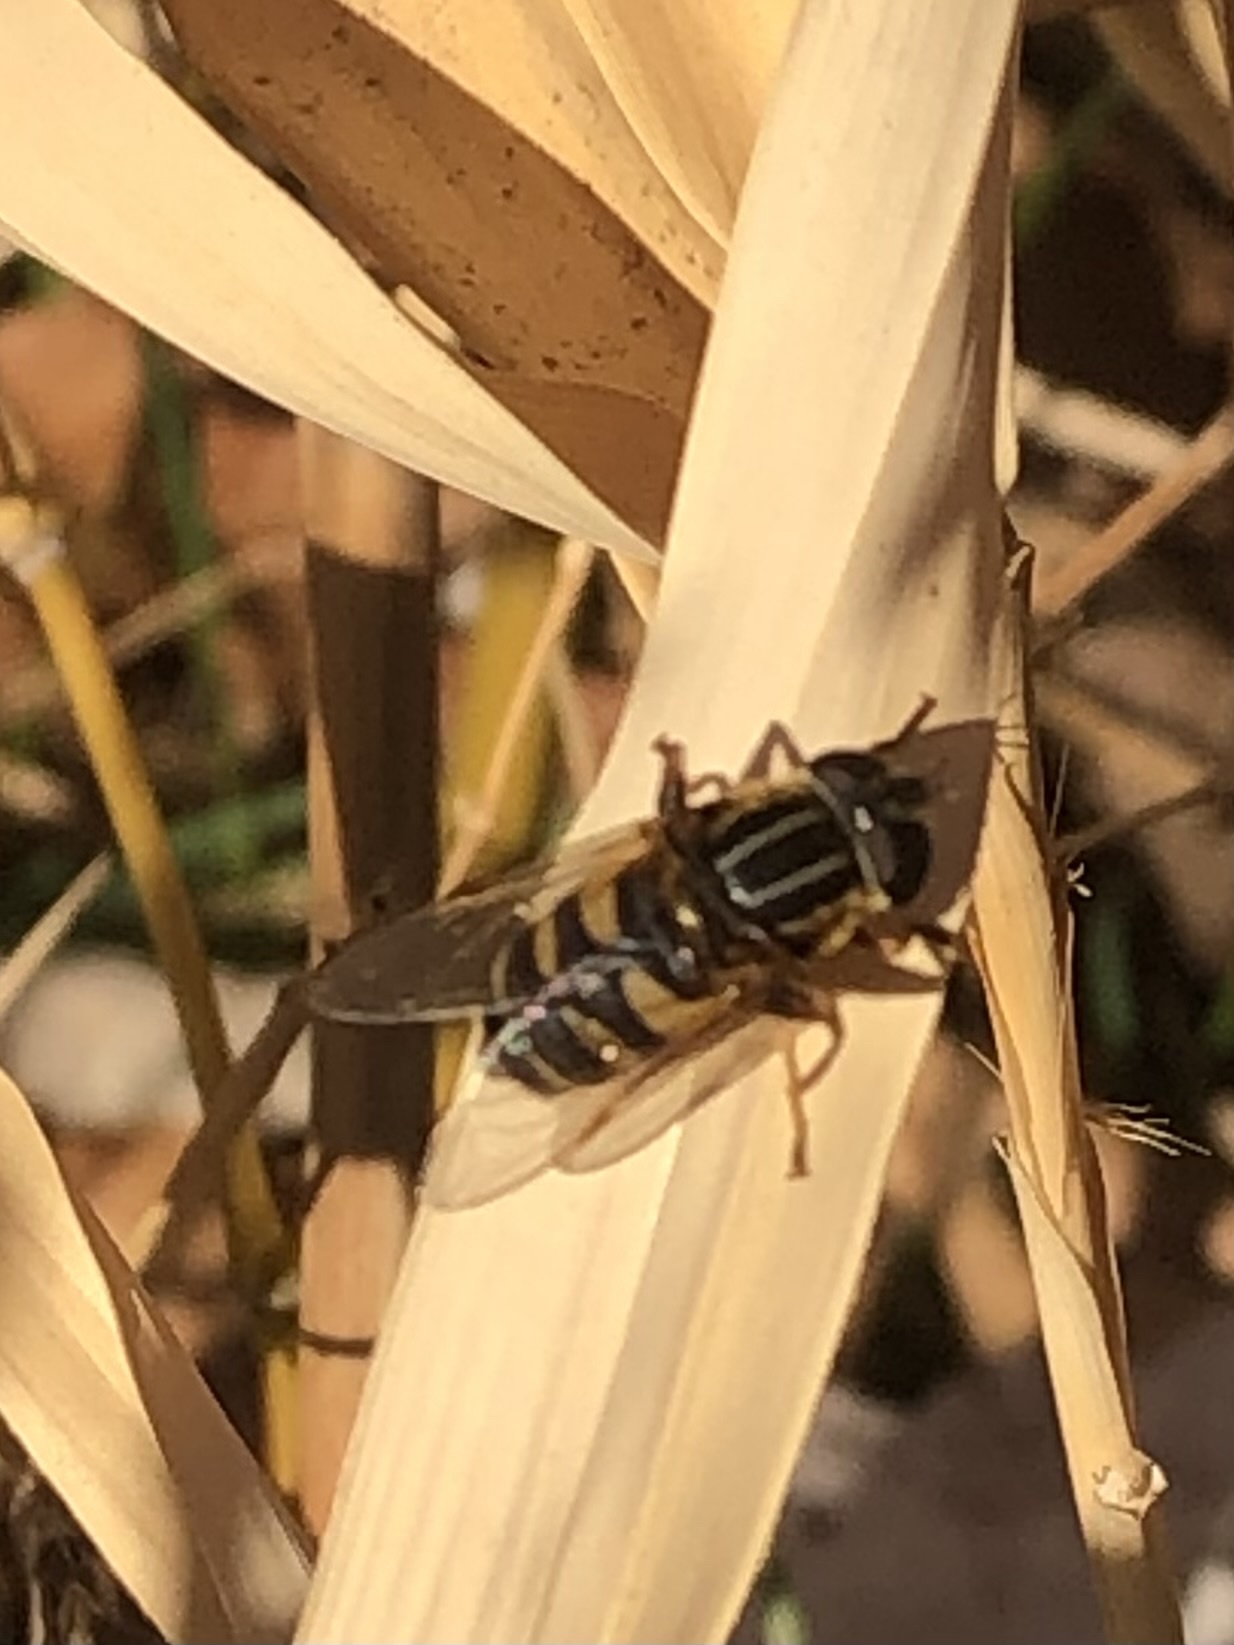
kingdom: Animalia
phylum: Arthropoda
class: Insecta
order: Diptera
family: Syrphidae
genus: Helophilus
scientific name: Helophilus fasciatus
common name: Narrow-headed marsh fly
